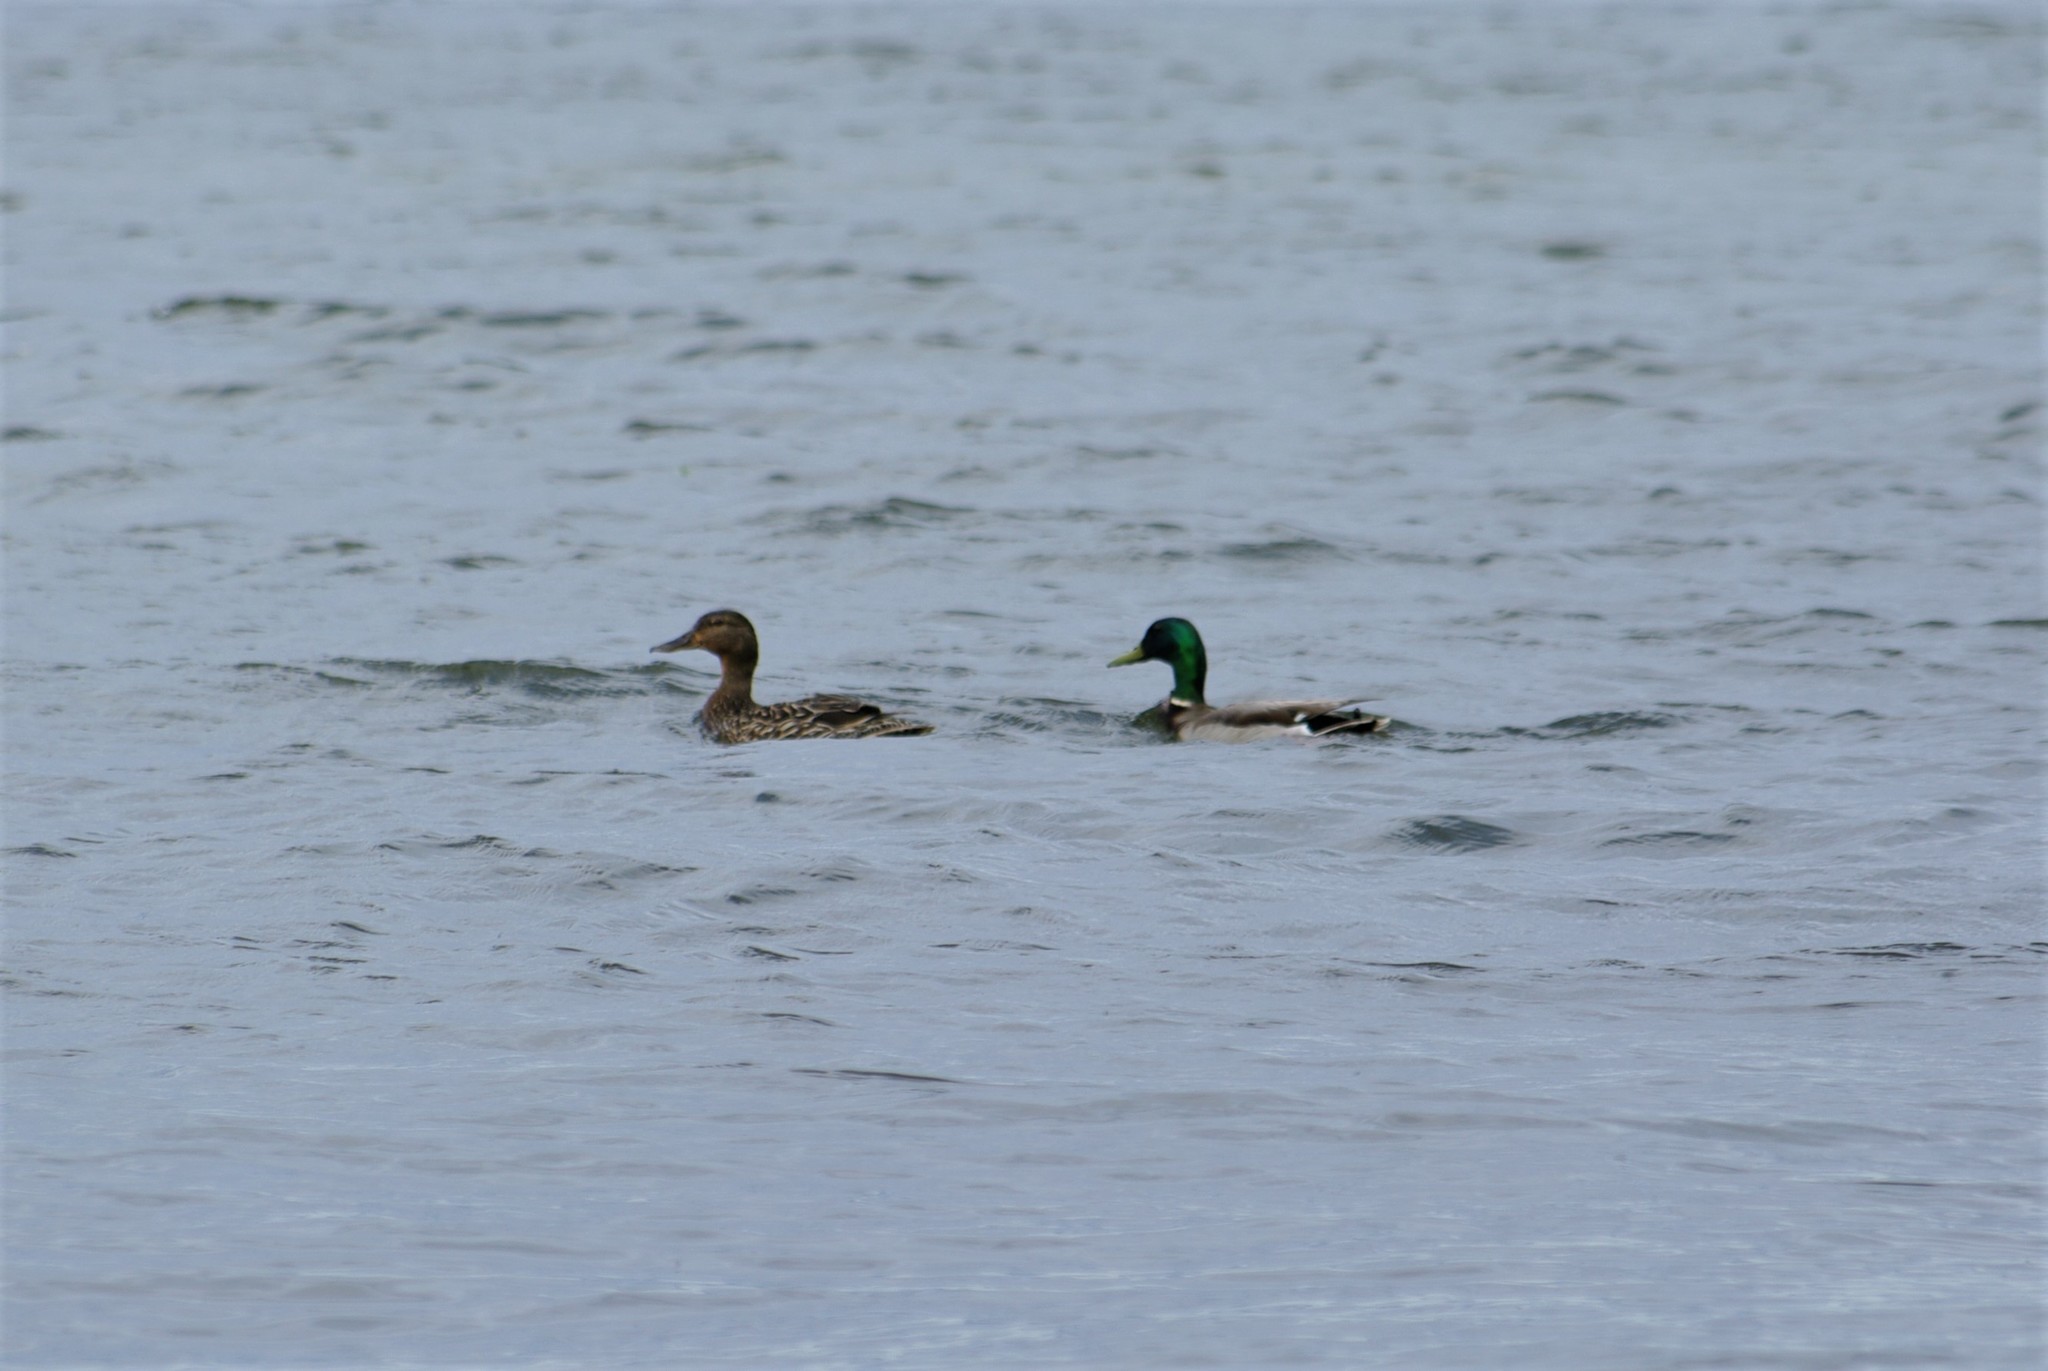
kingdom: Animalia
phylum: Chordata
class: Aves
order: Anseriformes
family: Anatidae
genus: Anas
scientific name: Anas platyrhynchos
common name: Mallard
